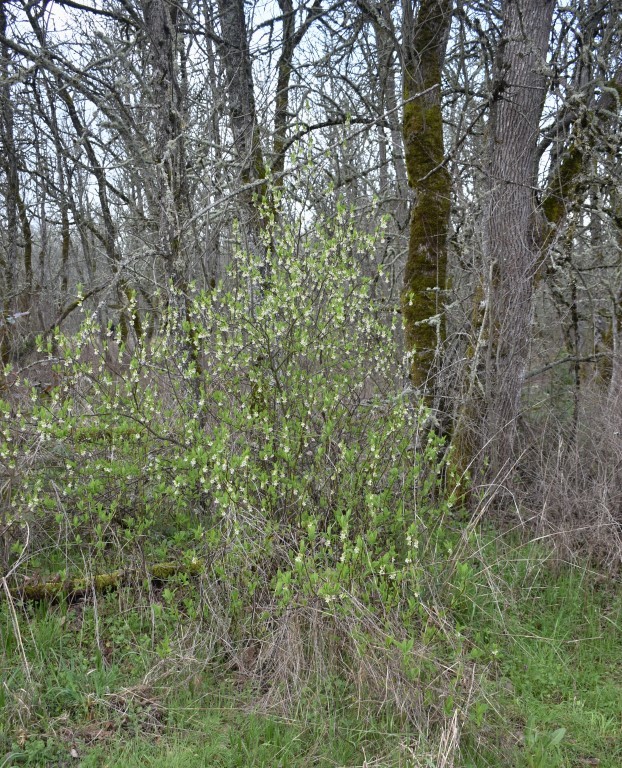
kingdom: Plantae
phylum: Tracheophyta
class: Magnoliopsida
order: Rosales
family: Rosaceae
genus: Oemleria
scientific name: Oemleria cerasiformis
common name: Osoberry
